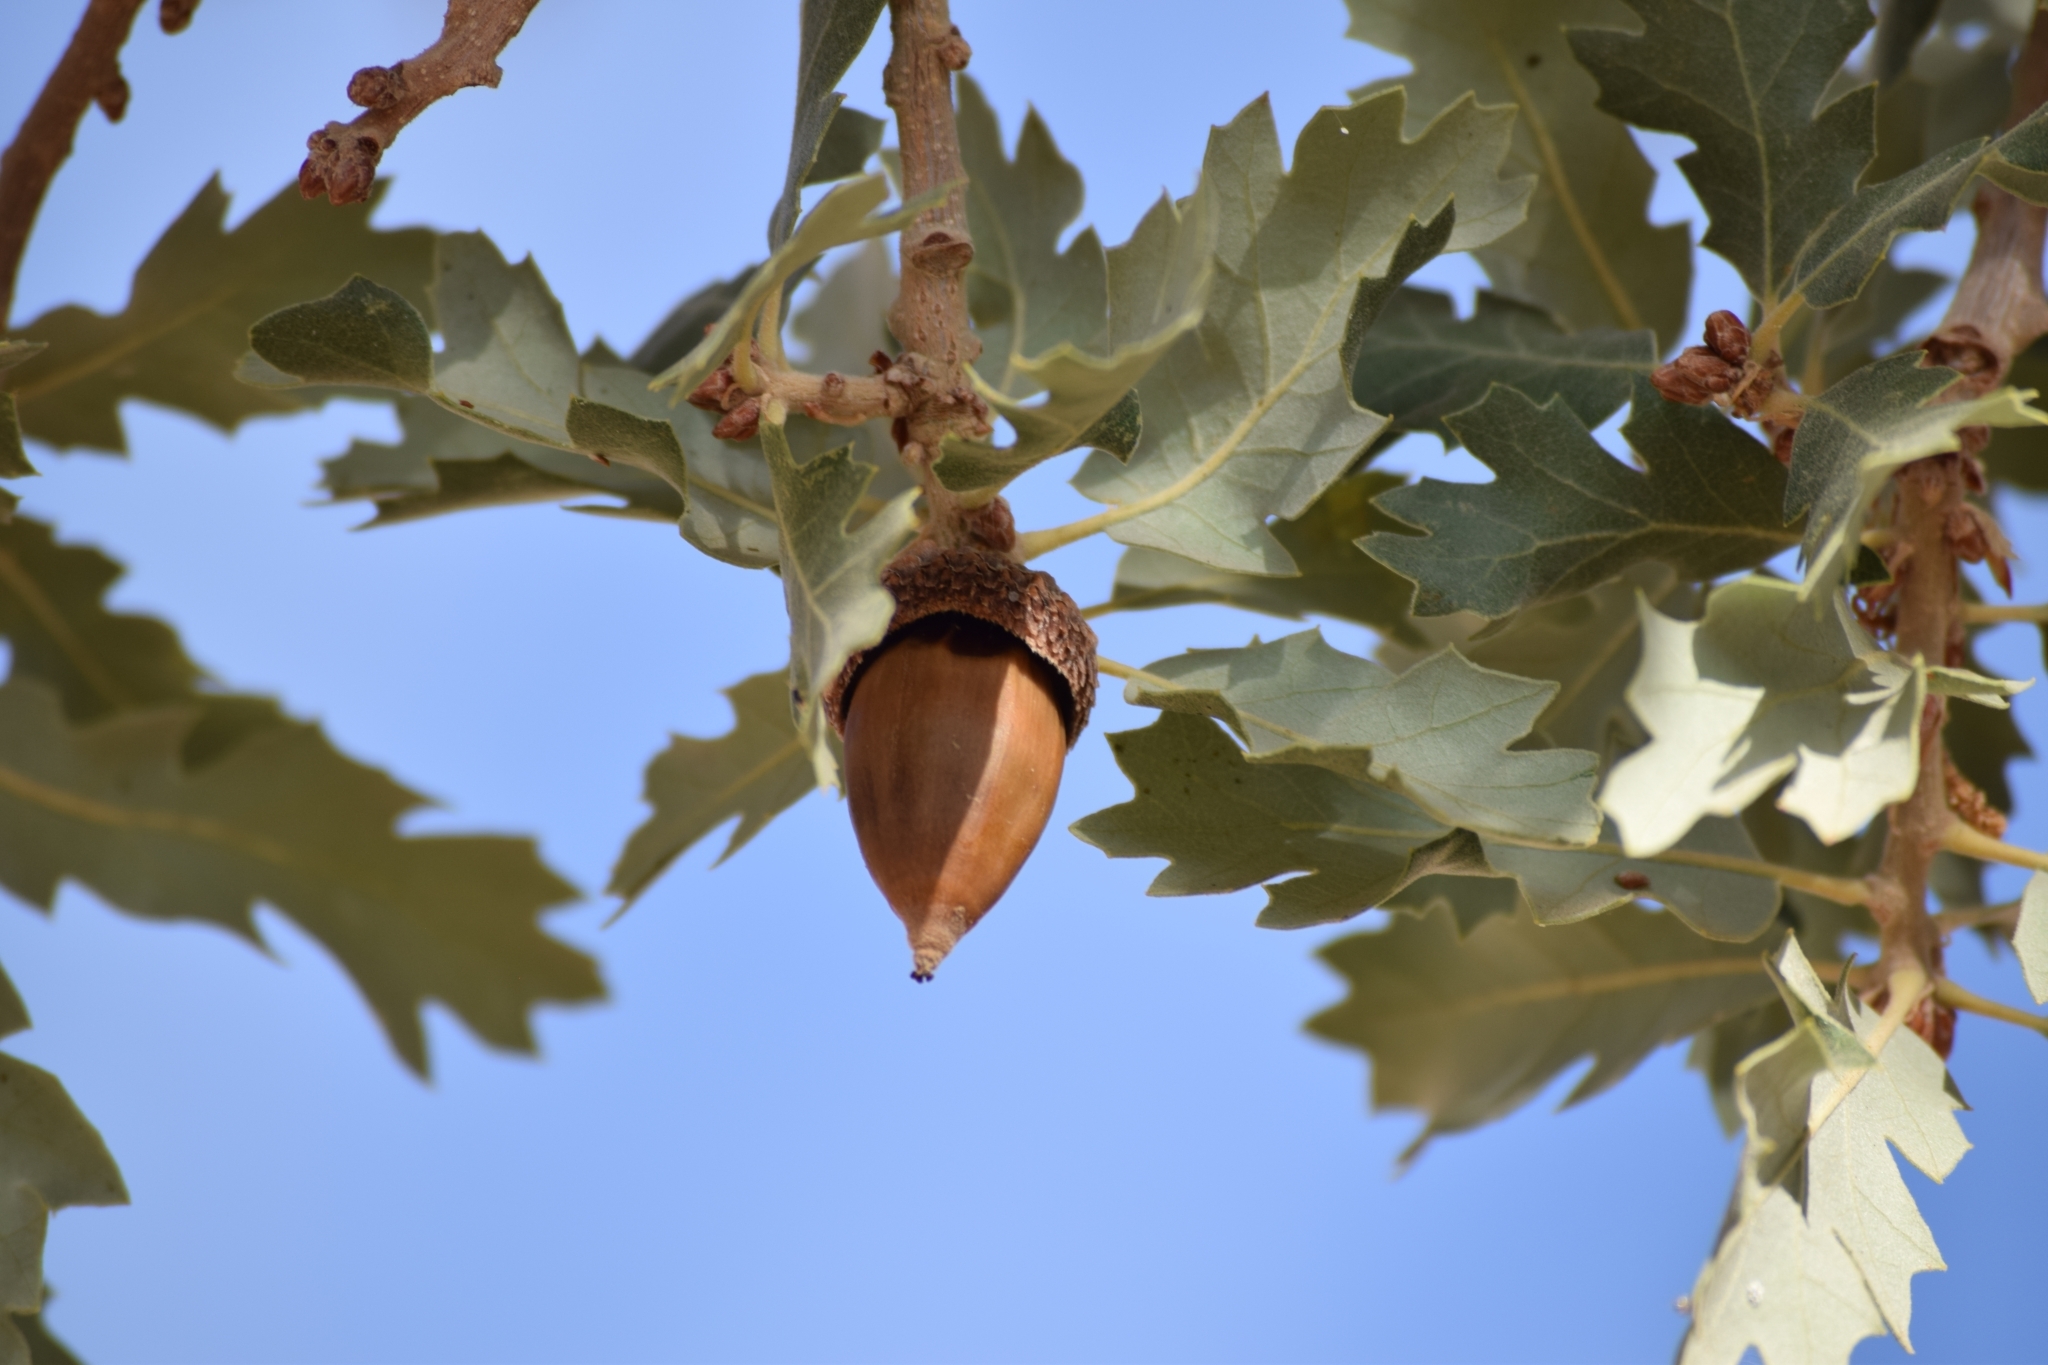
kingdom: Plantae
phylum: Tracheophyta
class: Magnoliopsida
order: Fagales
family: Fagaceae
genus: Quercus
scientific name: Quercus munzii
